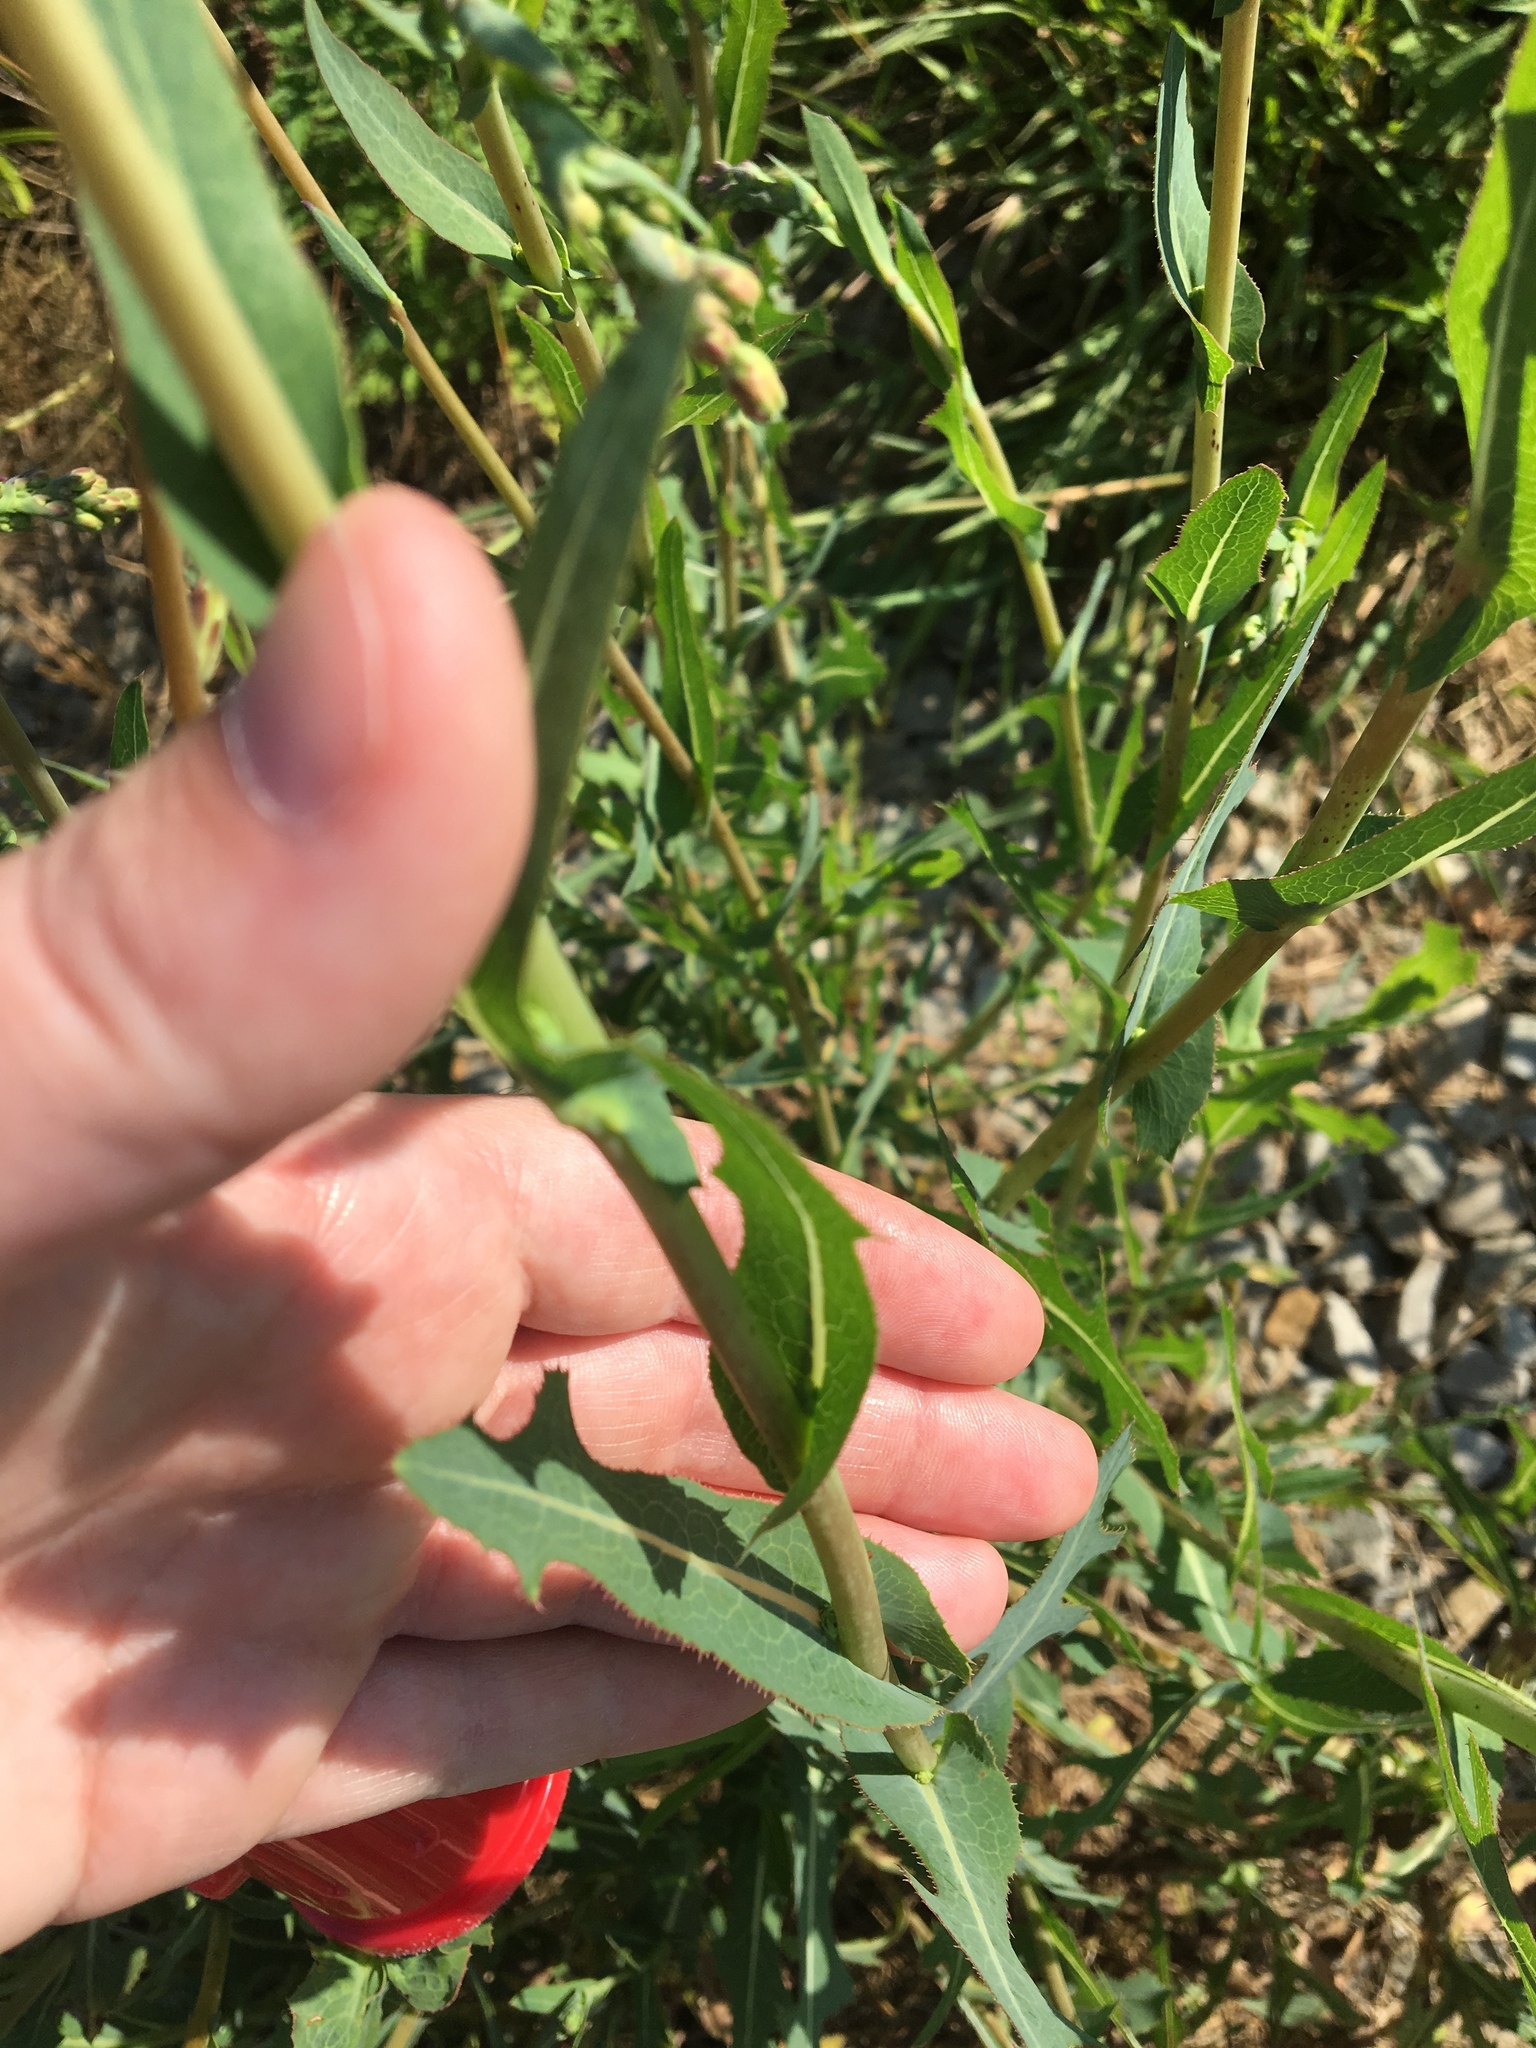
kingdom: Plantae
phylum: Tracheophyta
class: Magnoliopsida
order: Asterales
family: Asteraceae
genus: Lactuca
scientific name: Lactuca serriola
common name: Prickly lettuce
